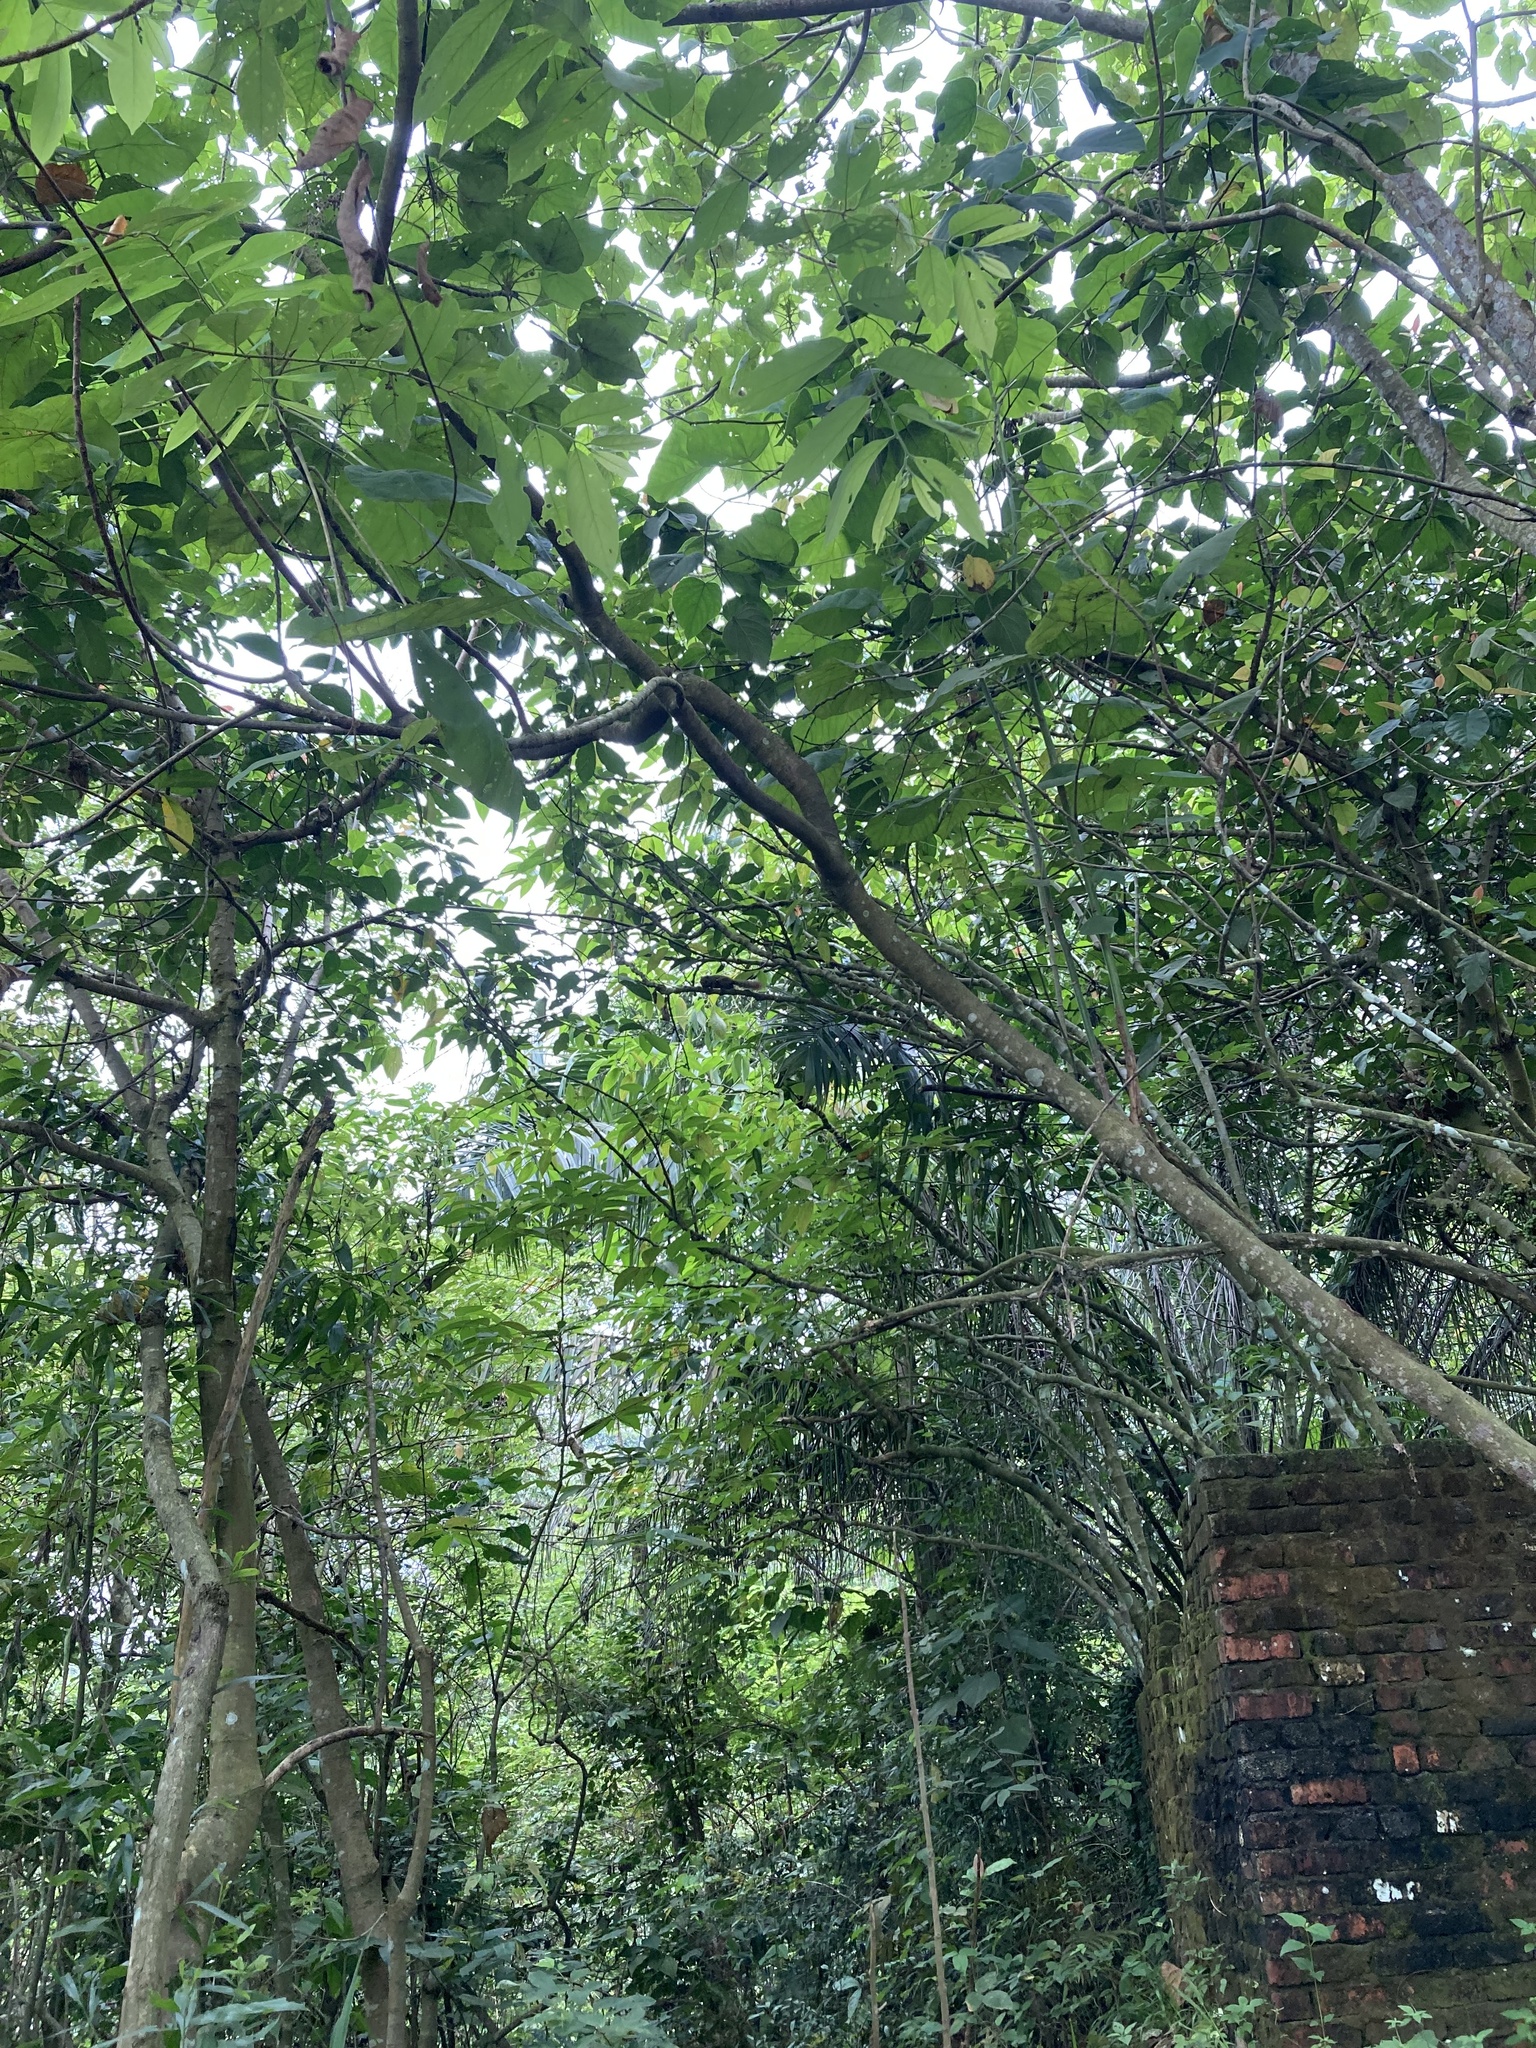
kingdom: Animalia
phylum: Chordata
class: Mammalia
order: Rodentia
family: Sciuridae
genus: Callosciurus
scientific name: Callosciurus notatus
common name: Plantain squirrel
